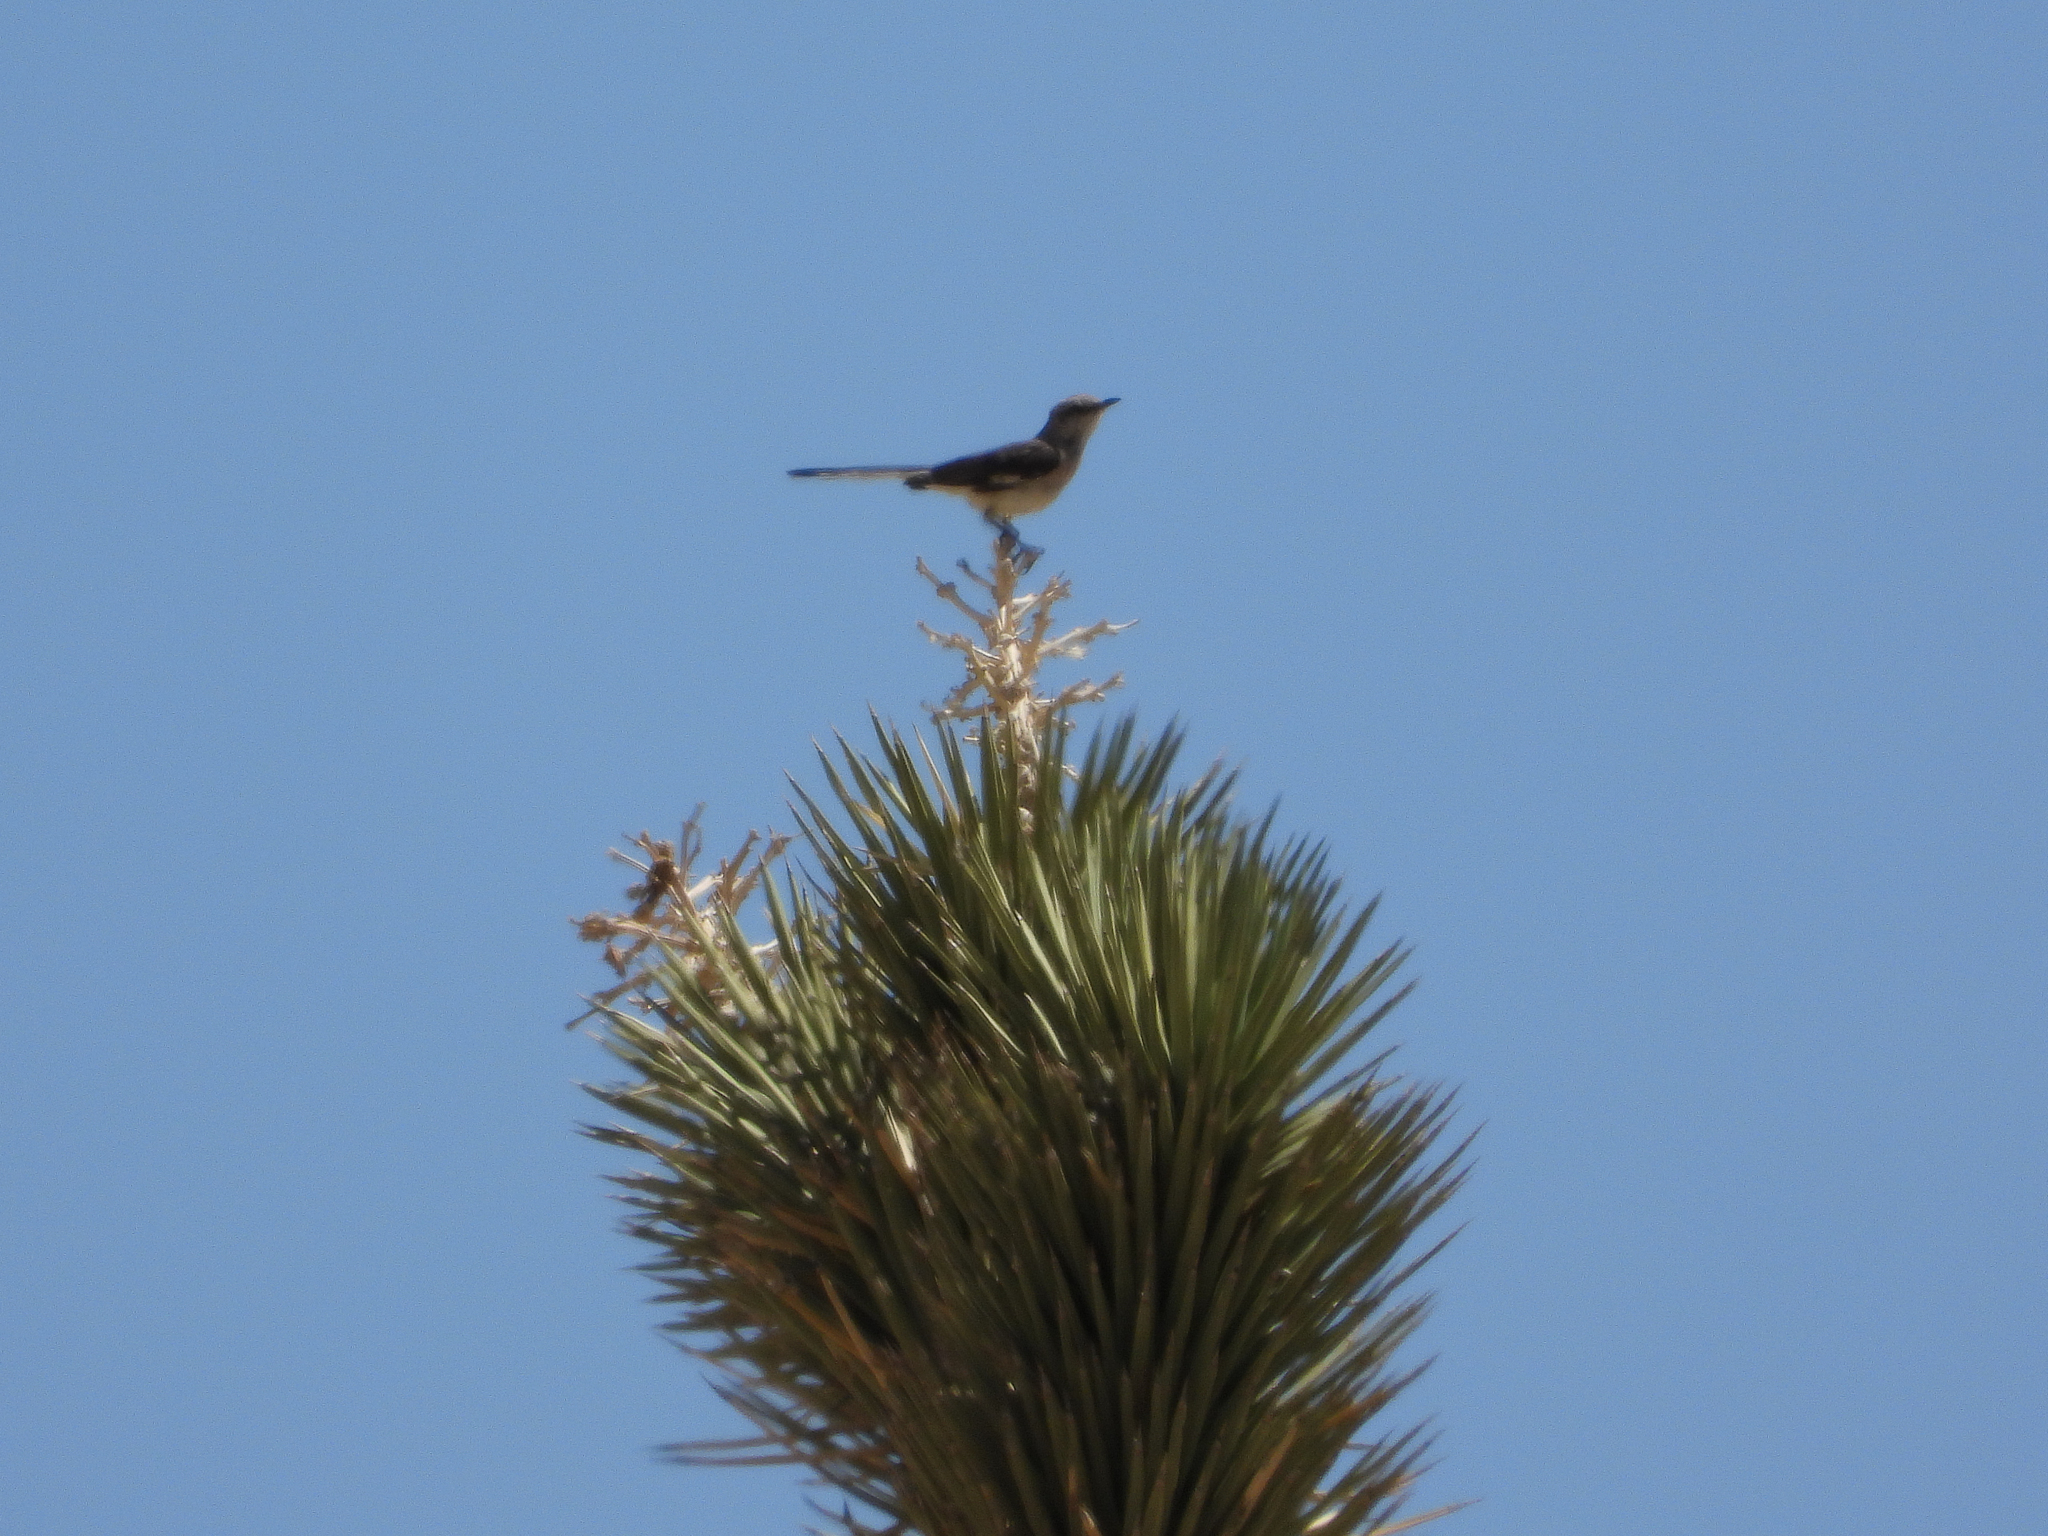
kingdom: Animalia
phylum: Chordata
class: Aves
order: Passeriformes
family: Mimidae
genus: Mimus
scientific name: Mimus polyglottos
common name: Northern mockingbird
